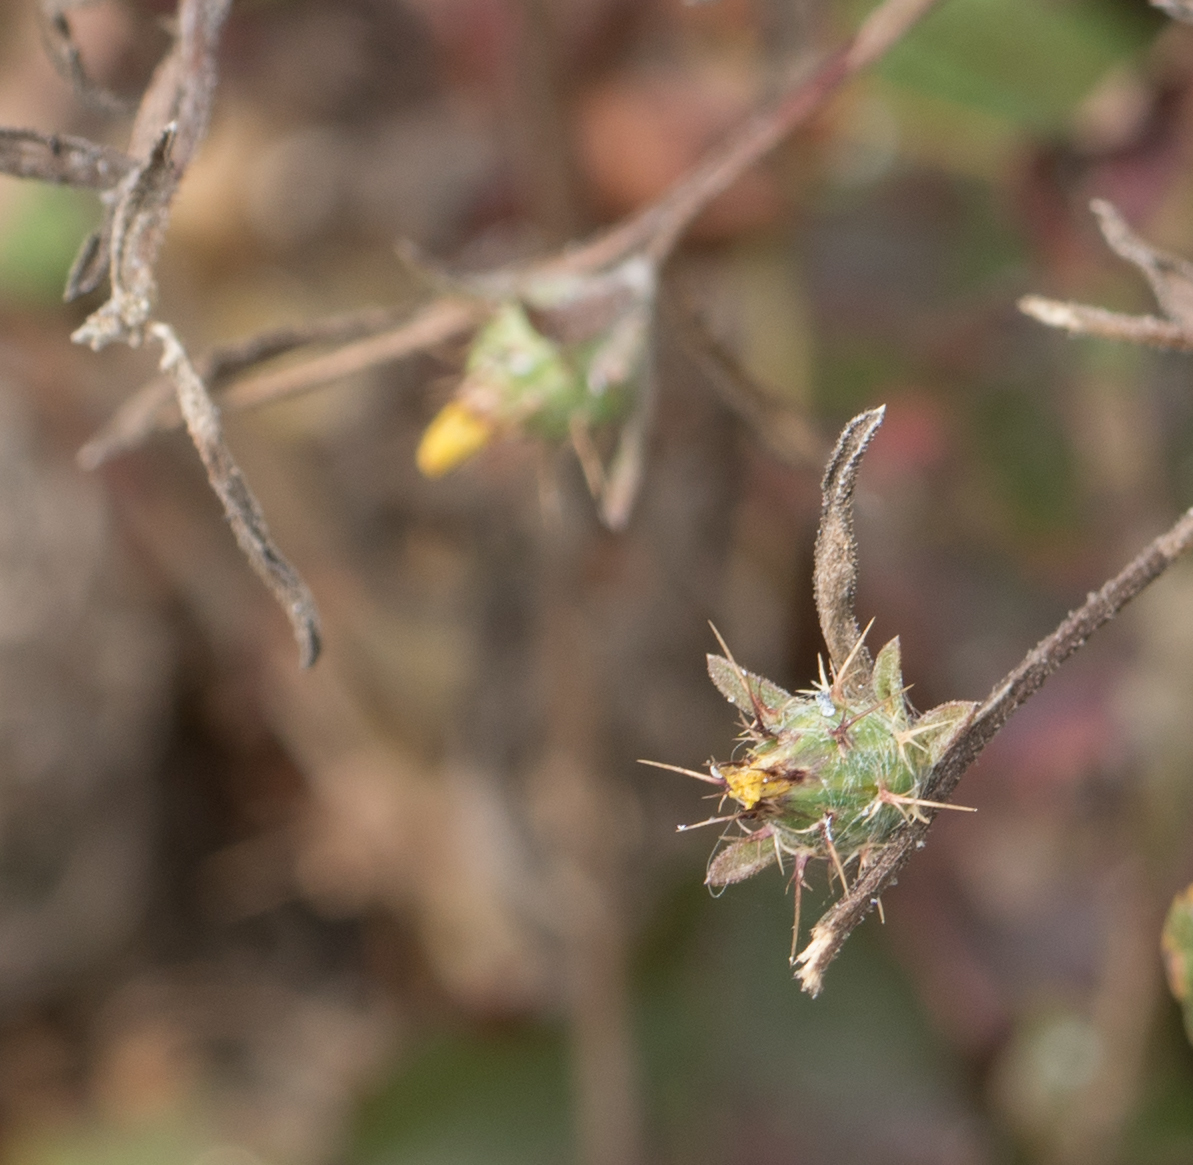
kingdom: Plantae
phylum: Tracheophyta
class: Magnoliopsida
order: Asterales
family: Asteraceae
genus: Centaurea
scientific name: Centaurea melitensis
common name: Maltese star-thistle
